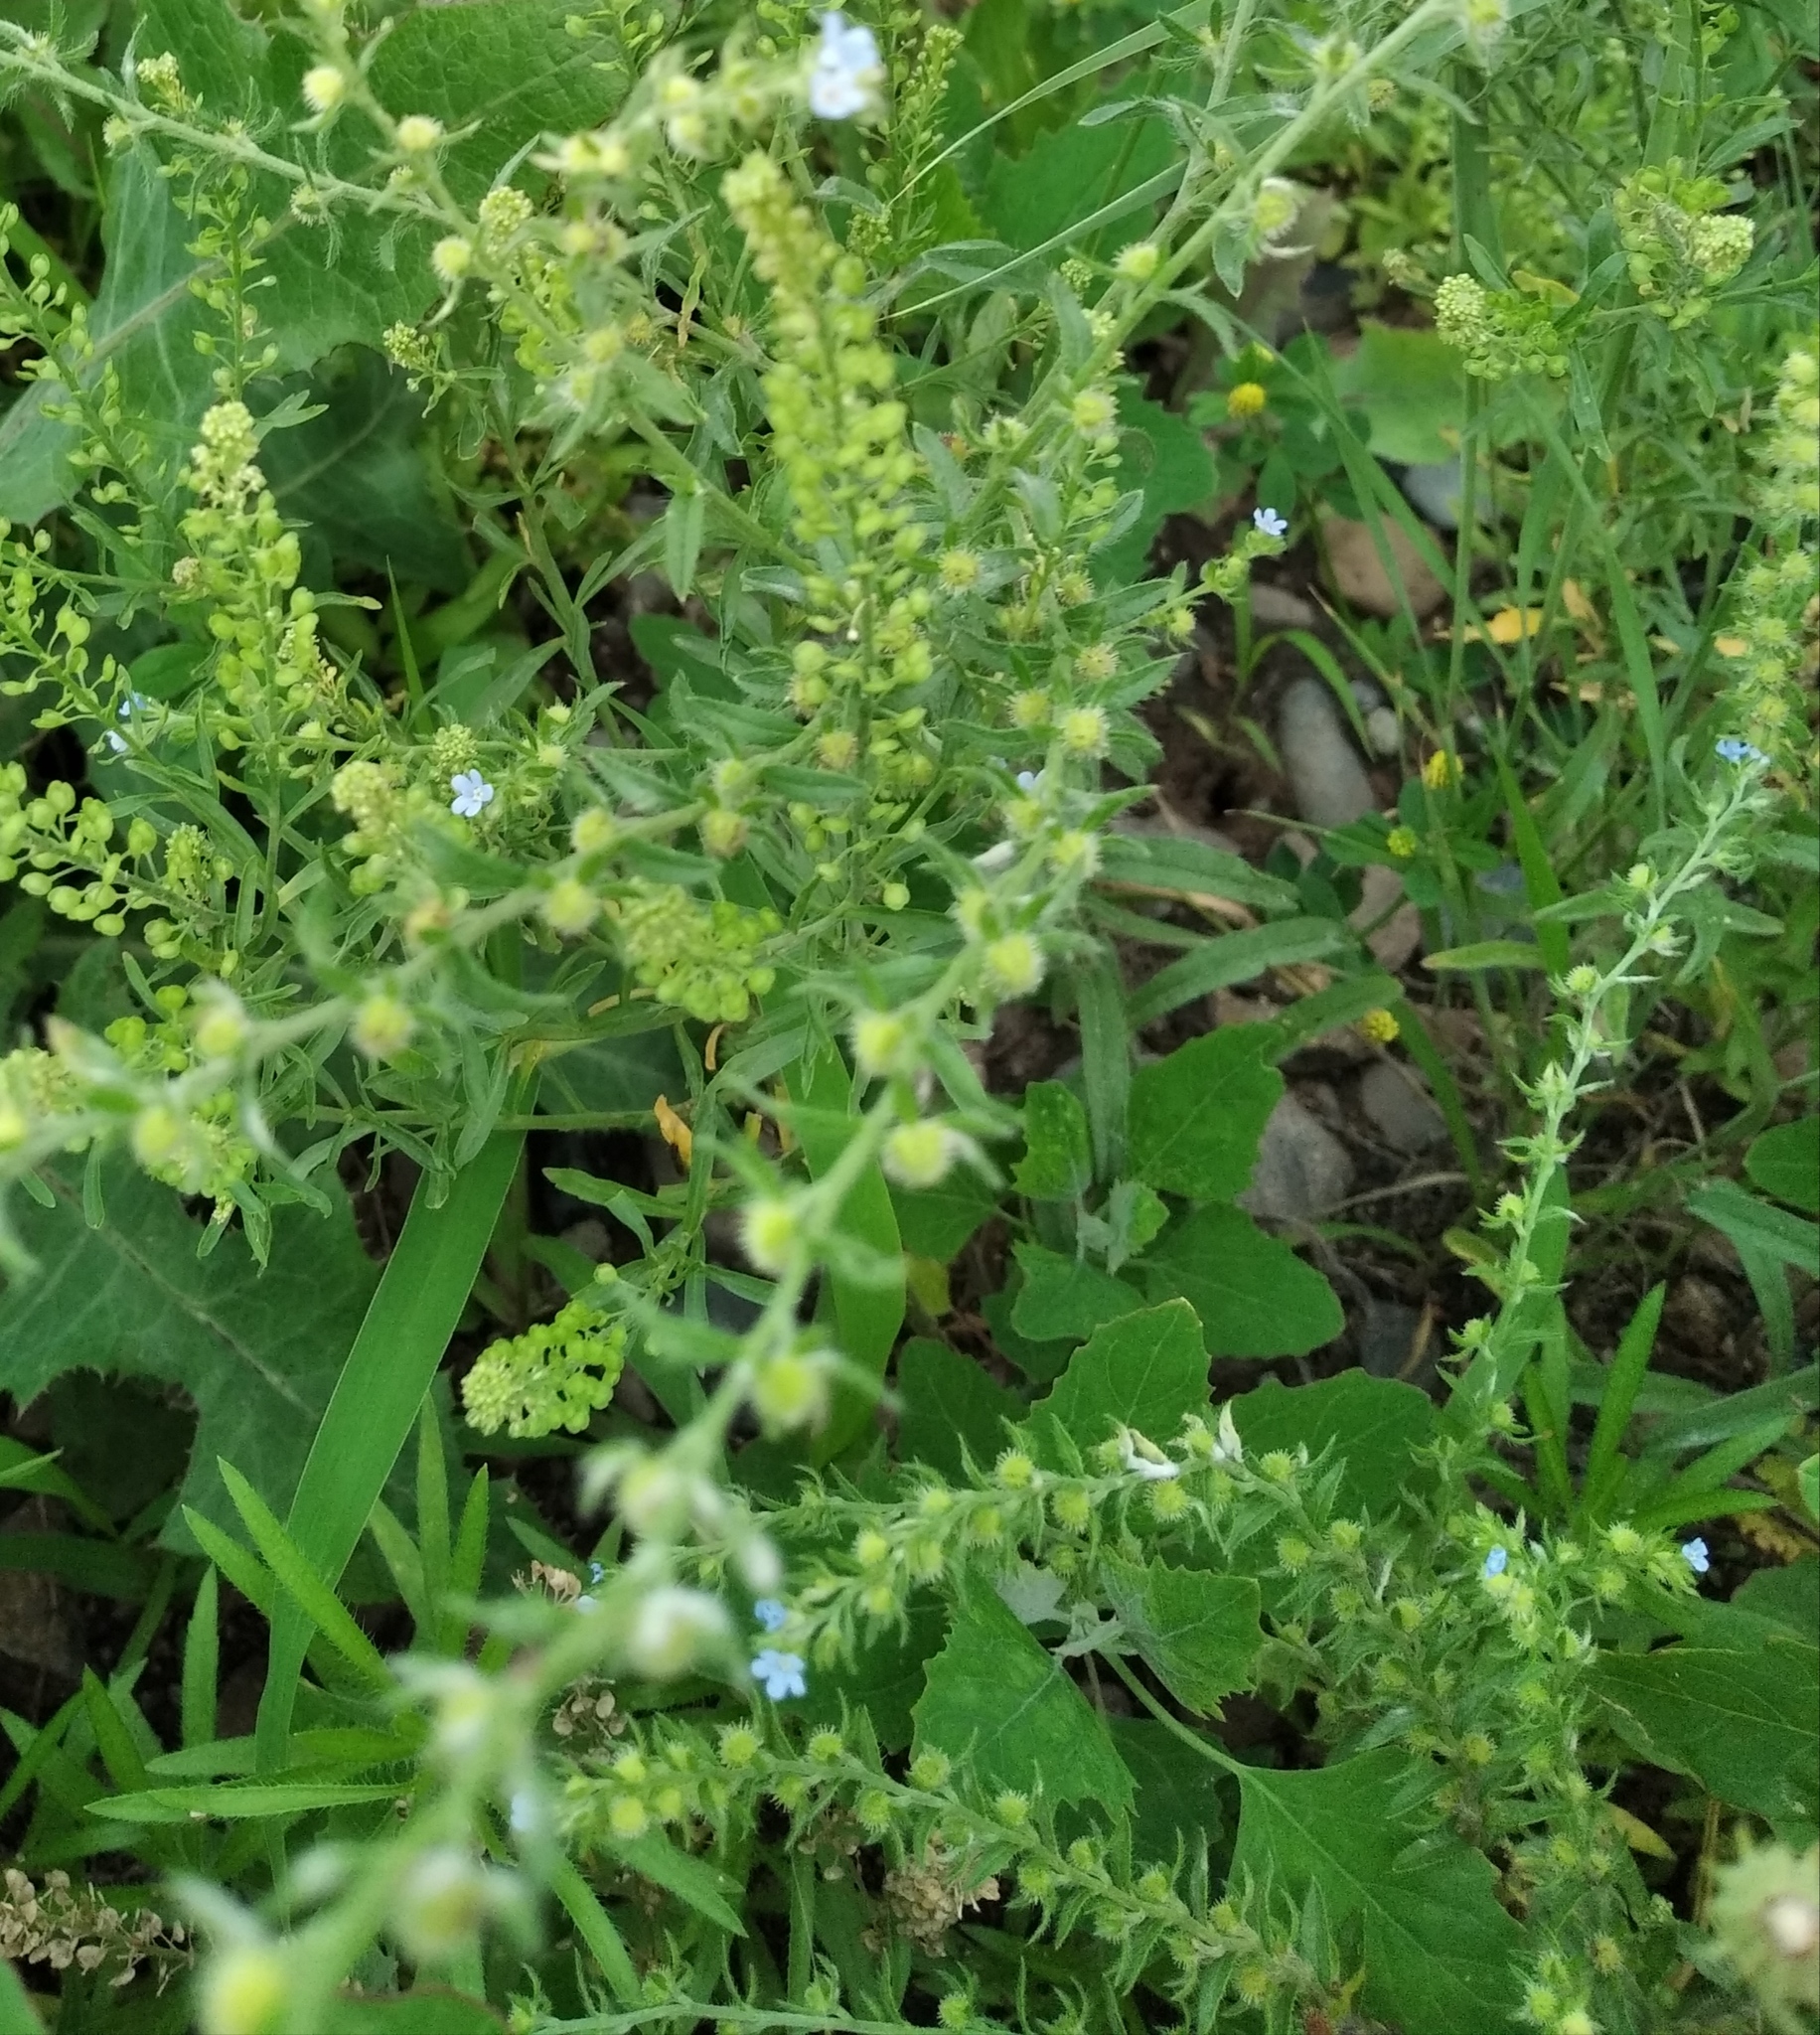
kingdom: Plantae
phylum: Tracheophyta
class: Magnoliopsida
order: Boraginales
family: Boraginaceae
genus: Lappula
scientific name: Lappula squarrosa
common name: European stickseed
